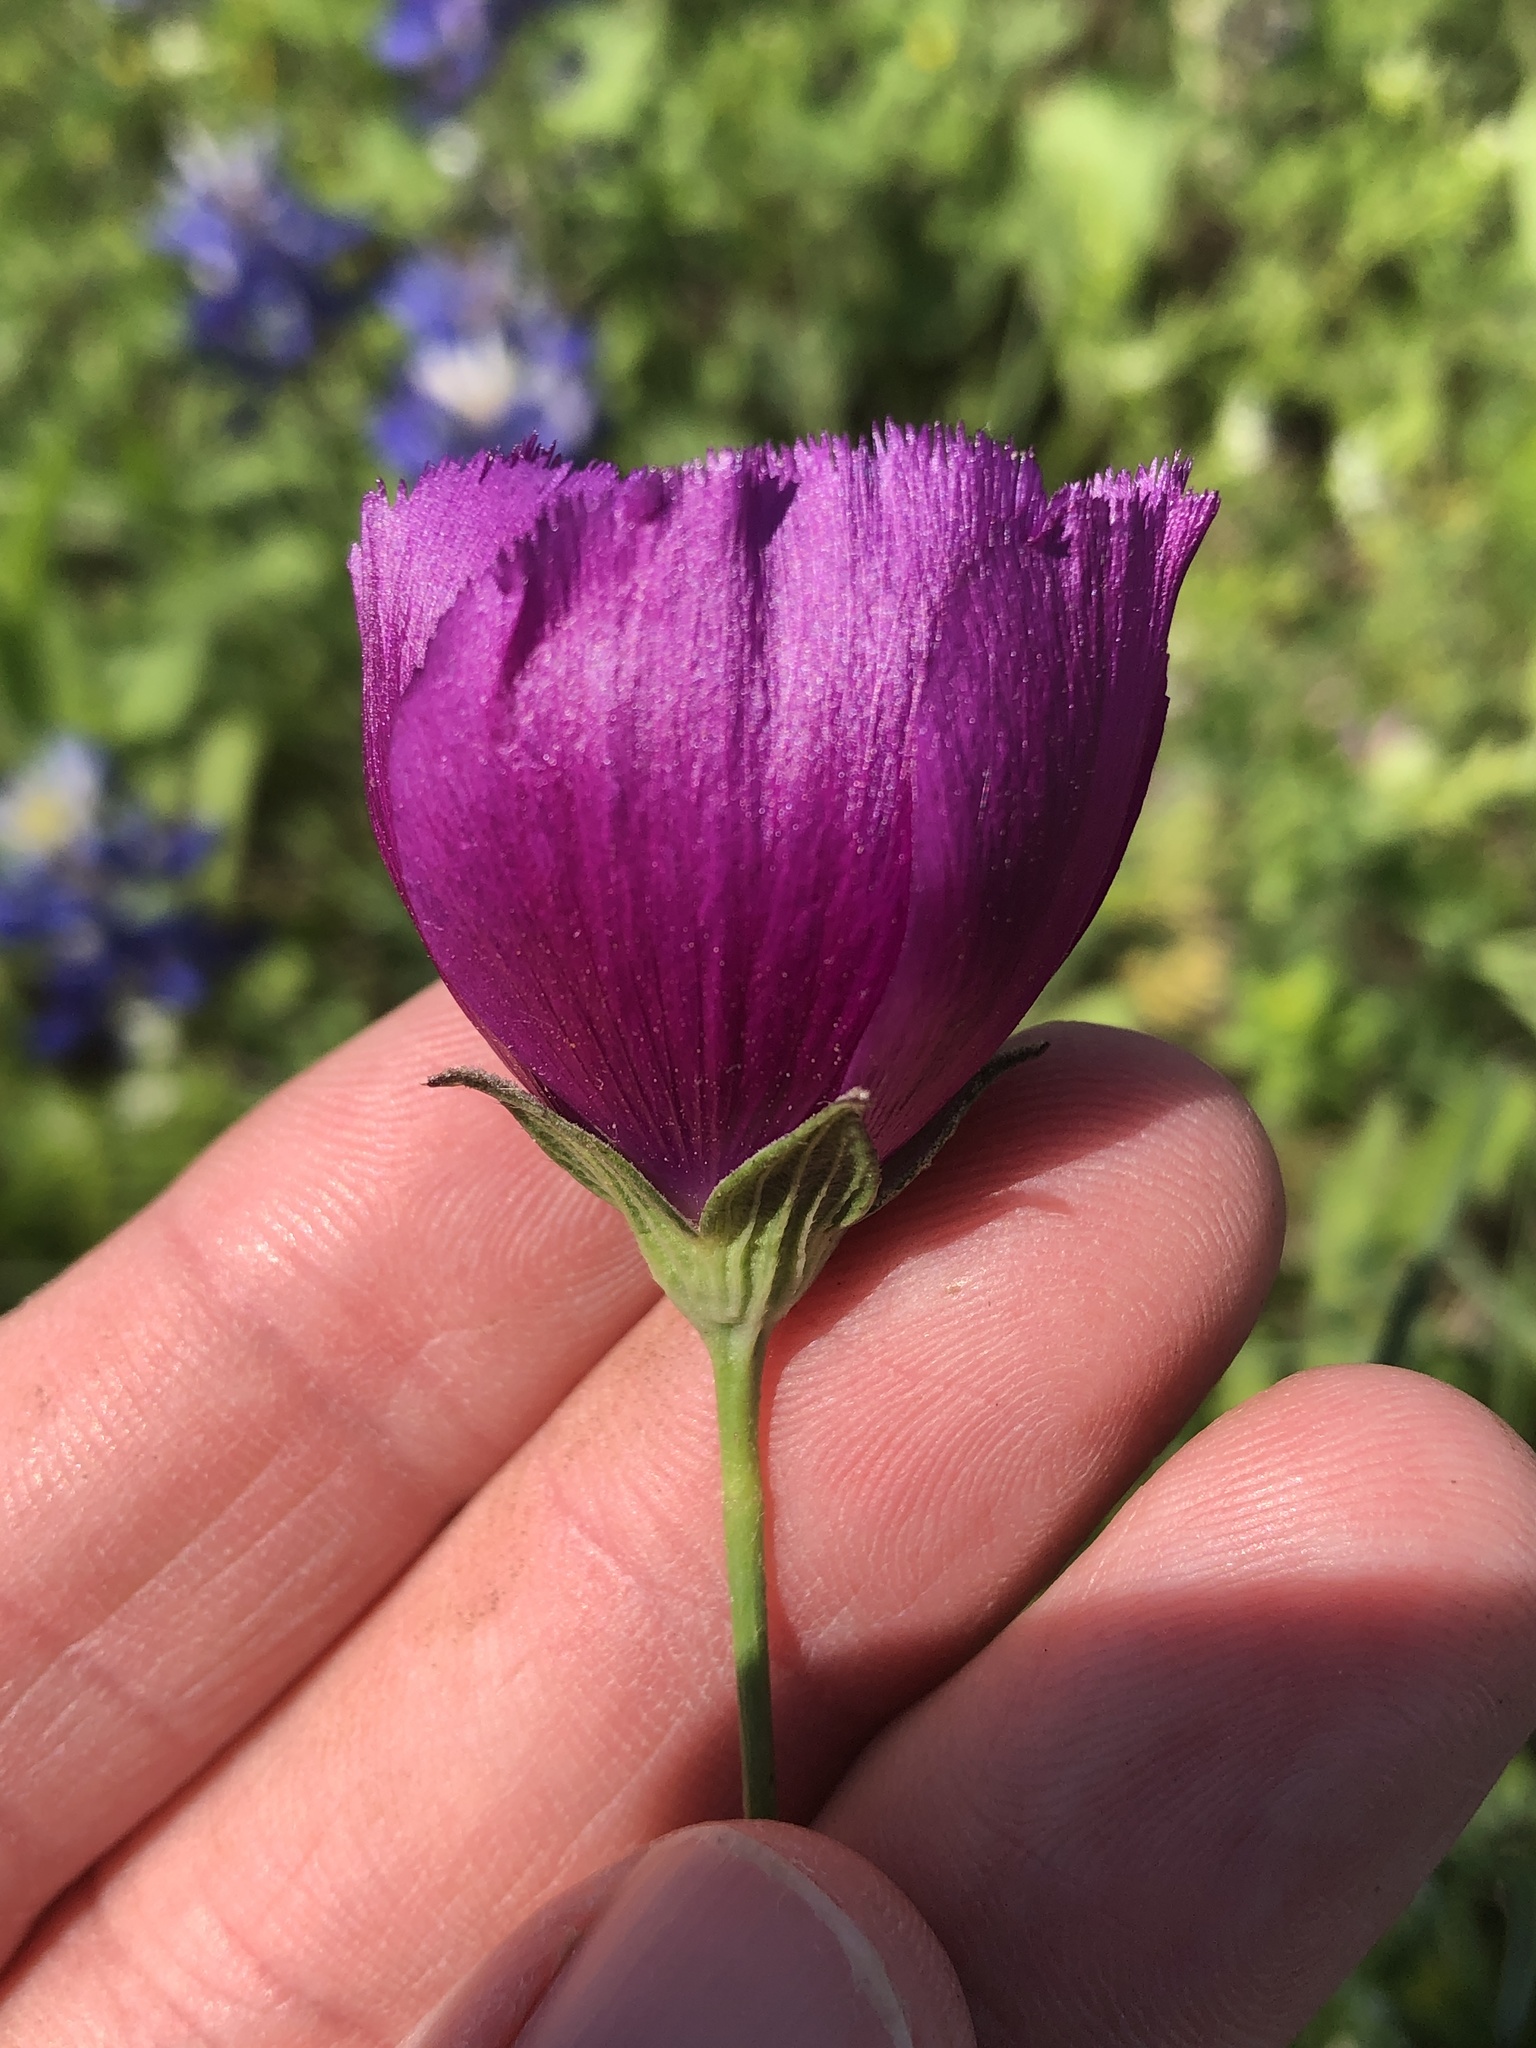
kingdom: Plantae
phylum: Tracheophyta
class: Magnoliopsida
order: Malvales
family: Malvaceae
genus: Callirhoe
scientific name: Callirhoe pedata
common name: Finger poppy-mallow
